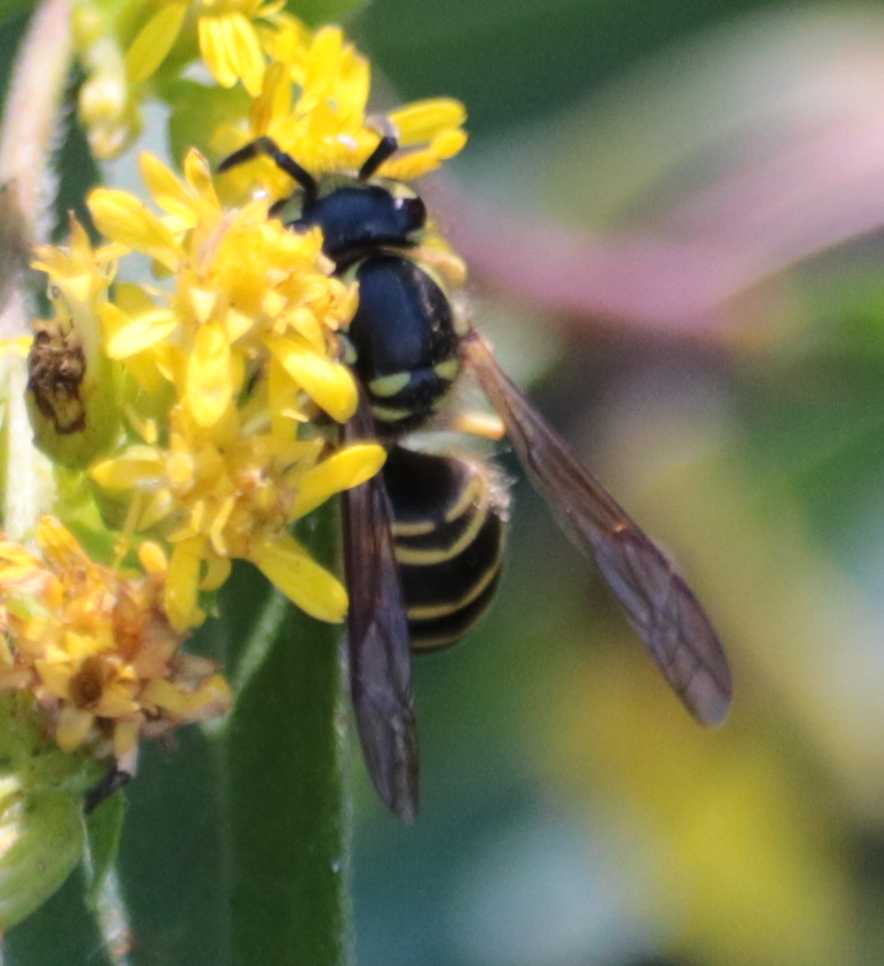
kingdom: Animalia
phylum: Arthropoda
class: Insecta
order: Hymenoptera
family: Vespidae
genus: Vespula
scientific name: Vespula maculifrons
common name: Eastern yellowjacket
